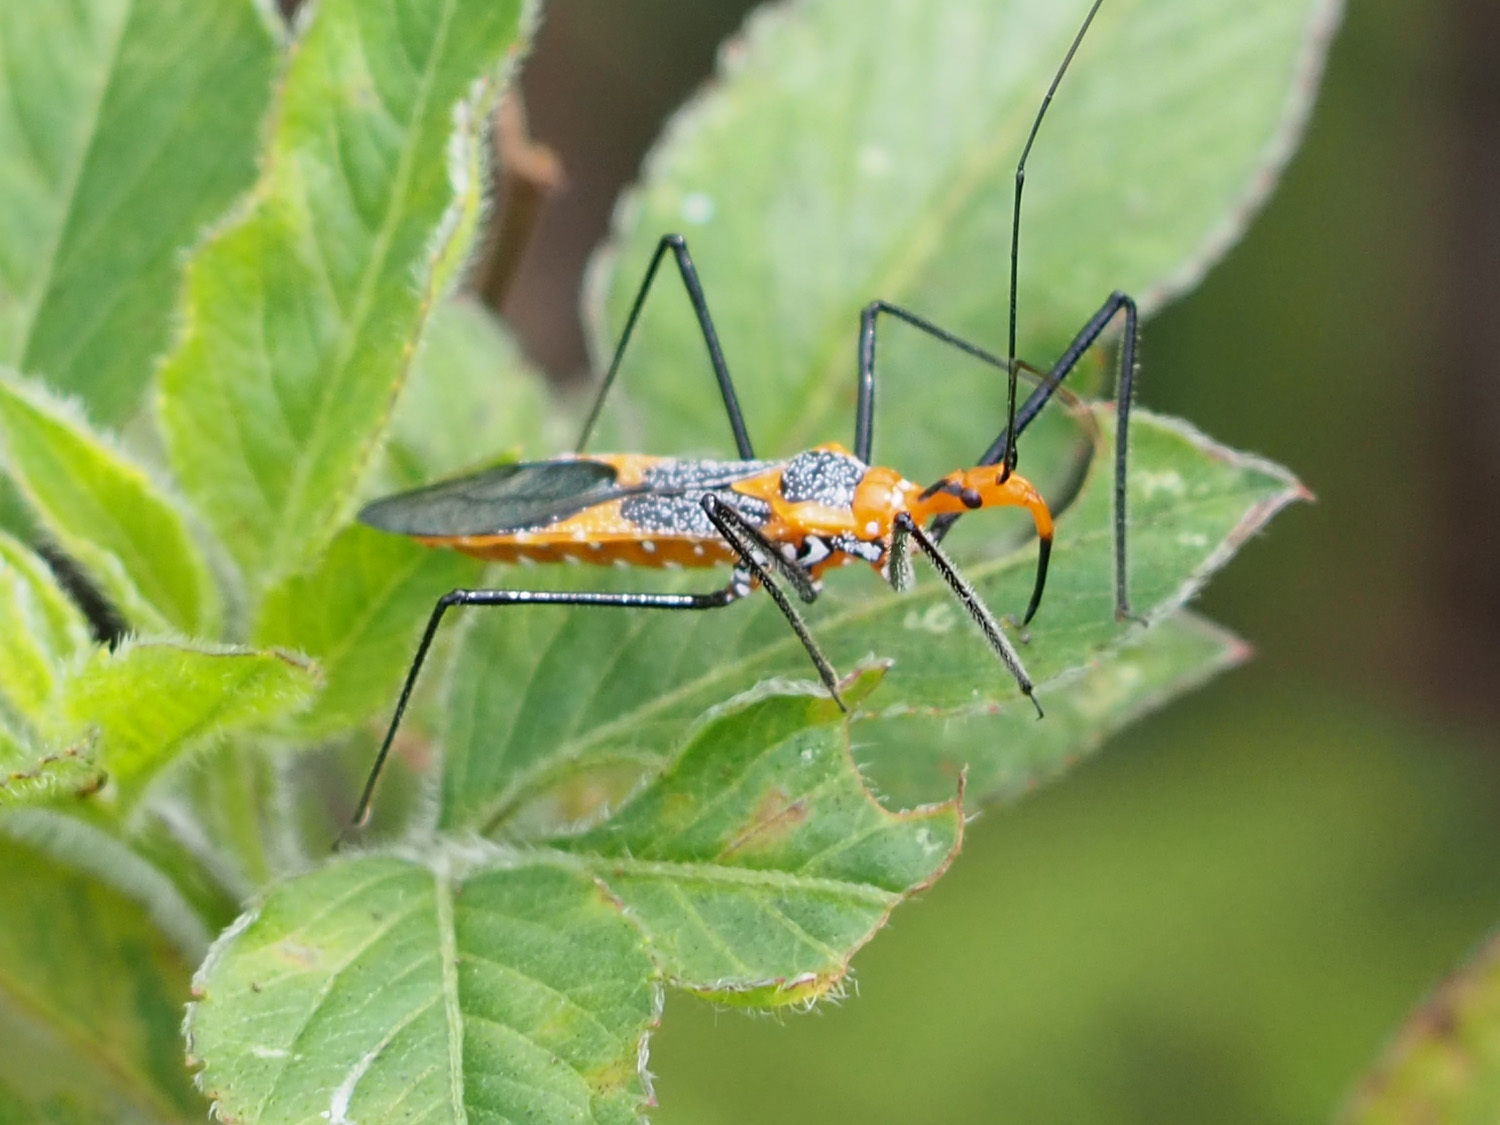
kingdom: Animalia
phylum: Arthropoda
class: Insecta
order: Hemiptera
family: Reduviidae
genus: Zelus
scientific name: Zelus longipes
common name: Milkweed assassin bug
